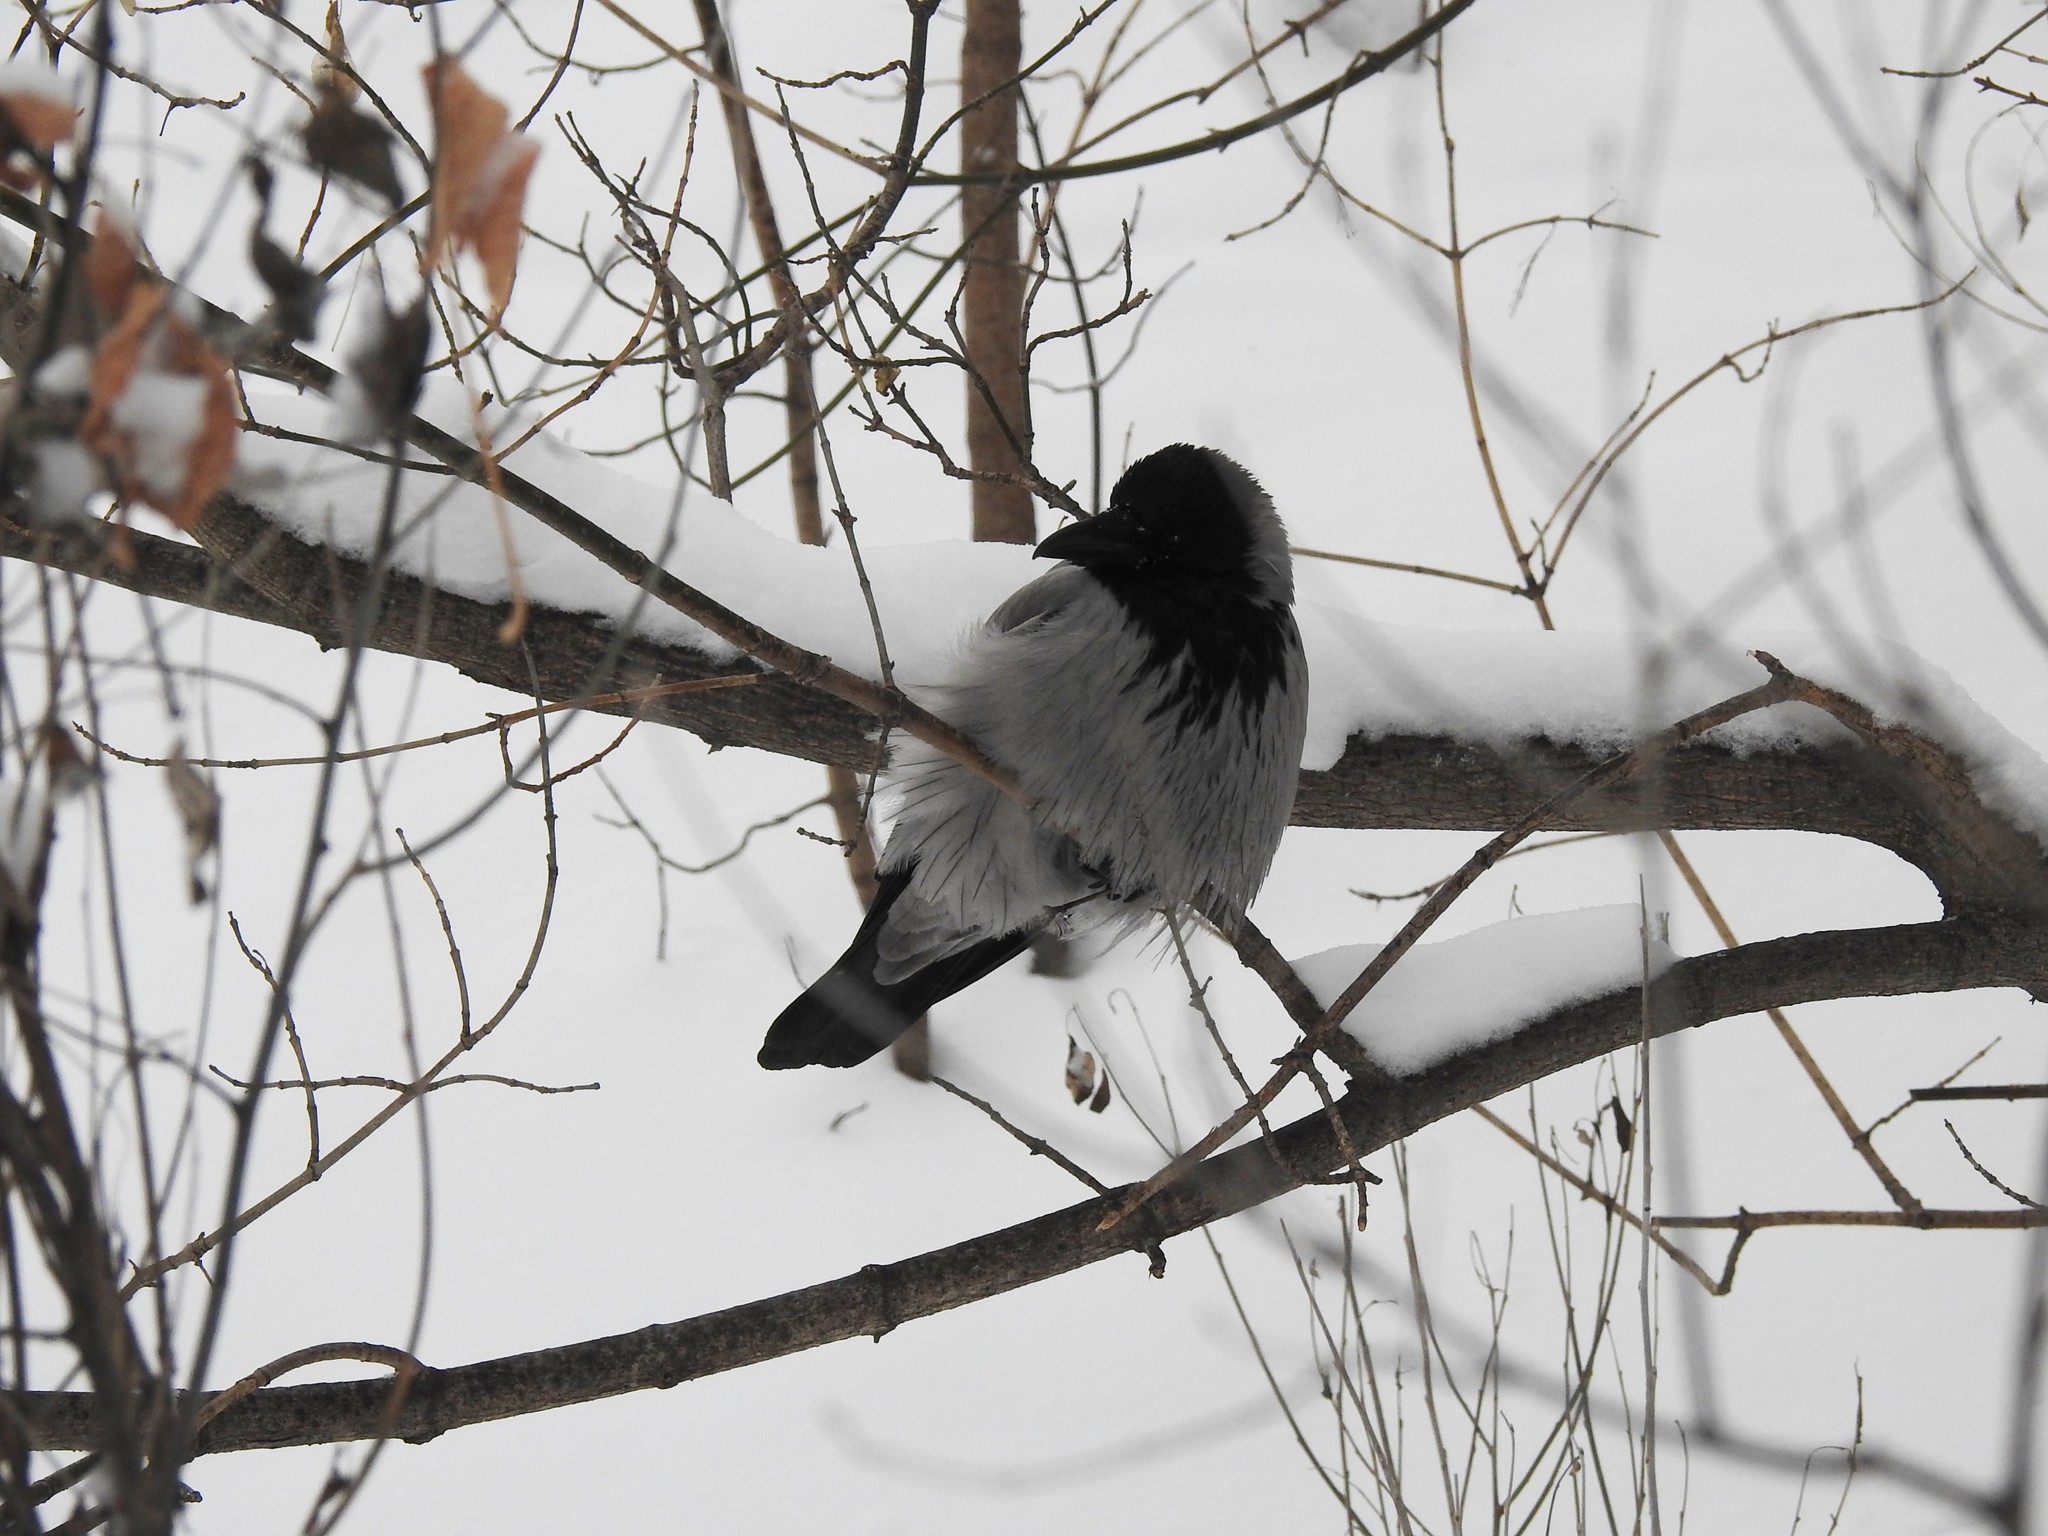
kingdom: Animalia
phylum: Chordata
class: Aves
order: Passeriformes
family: Corvidae
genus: Corvus
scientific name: Corvus cornix
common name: Hooded crow
